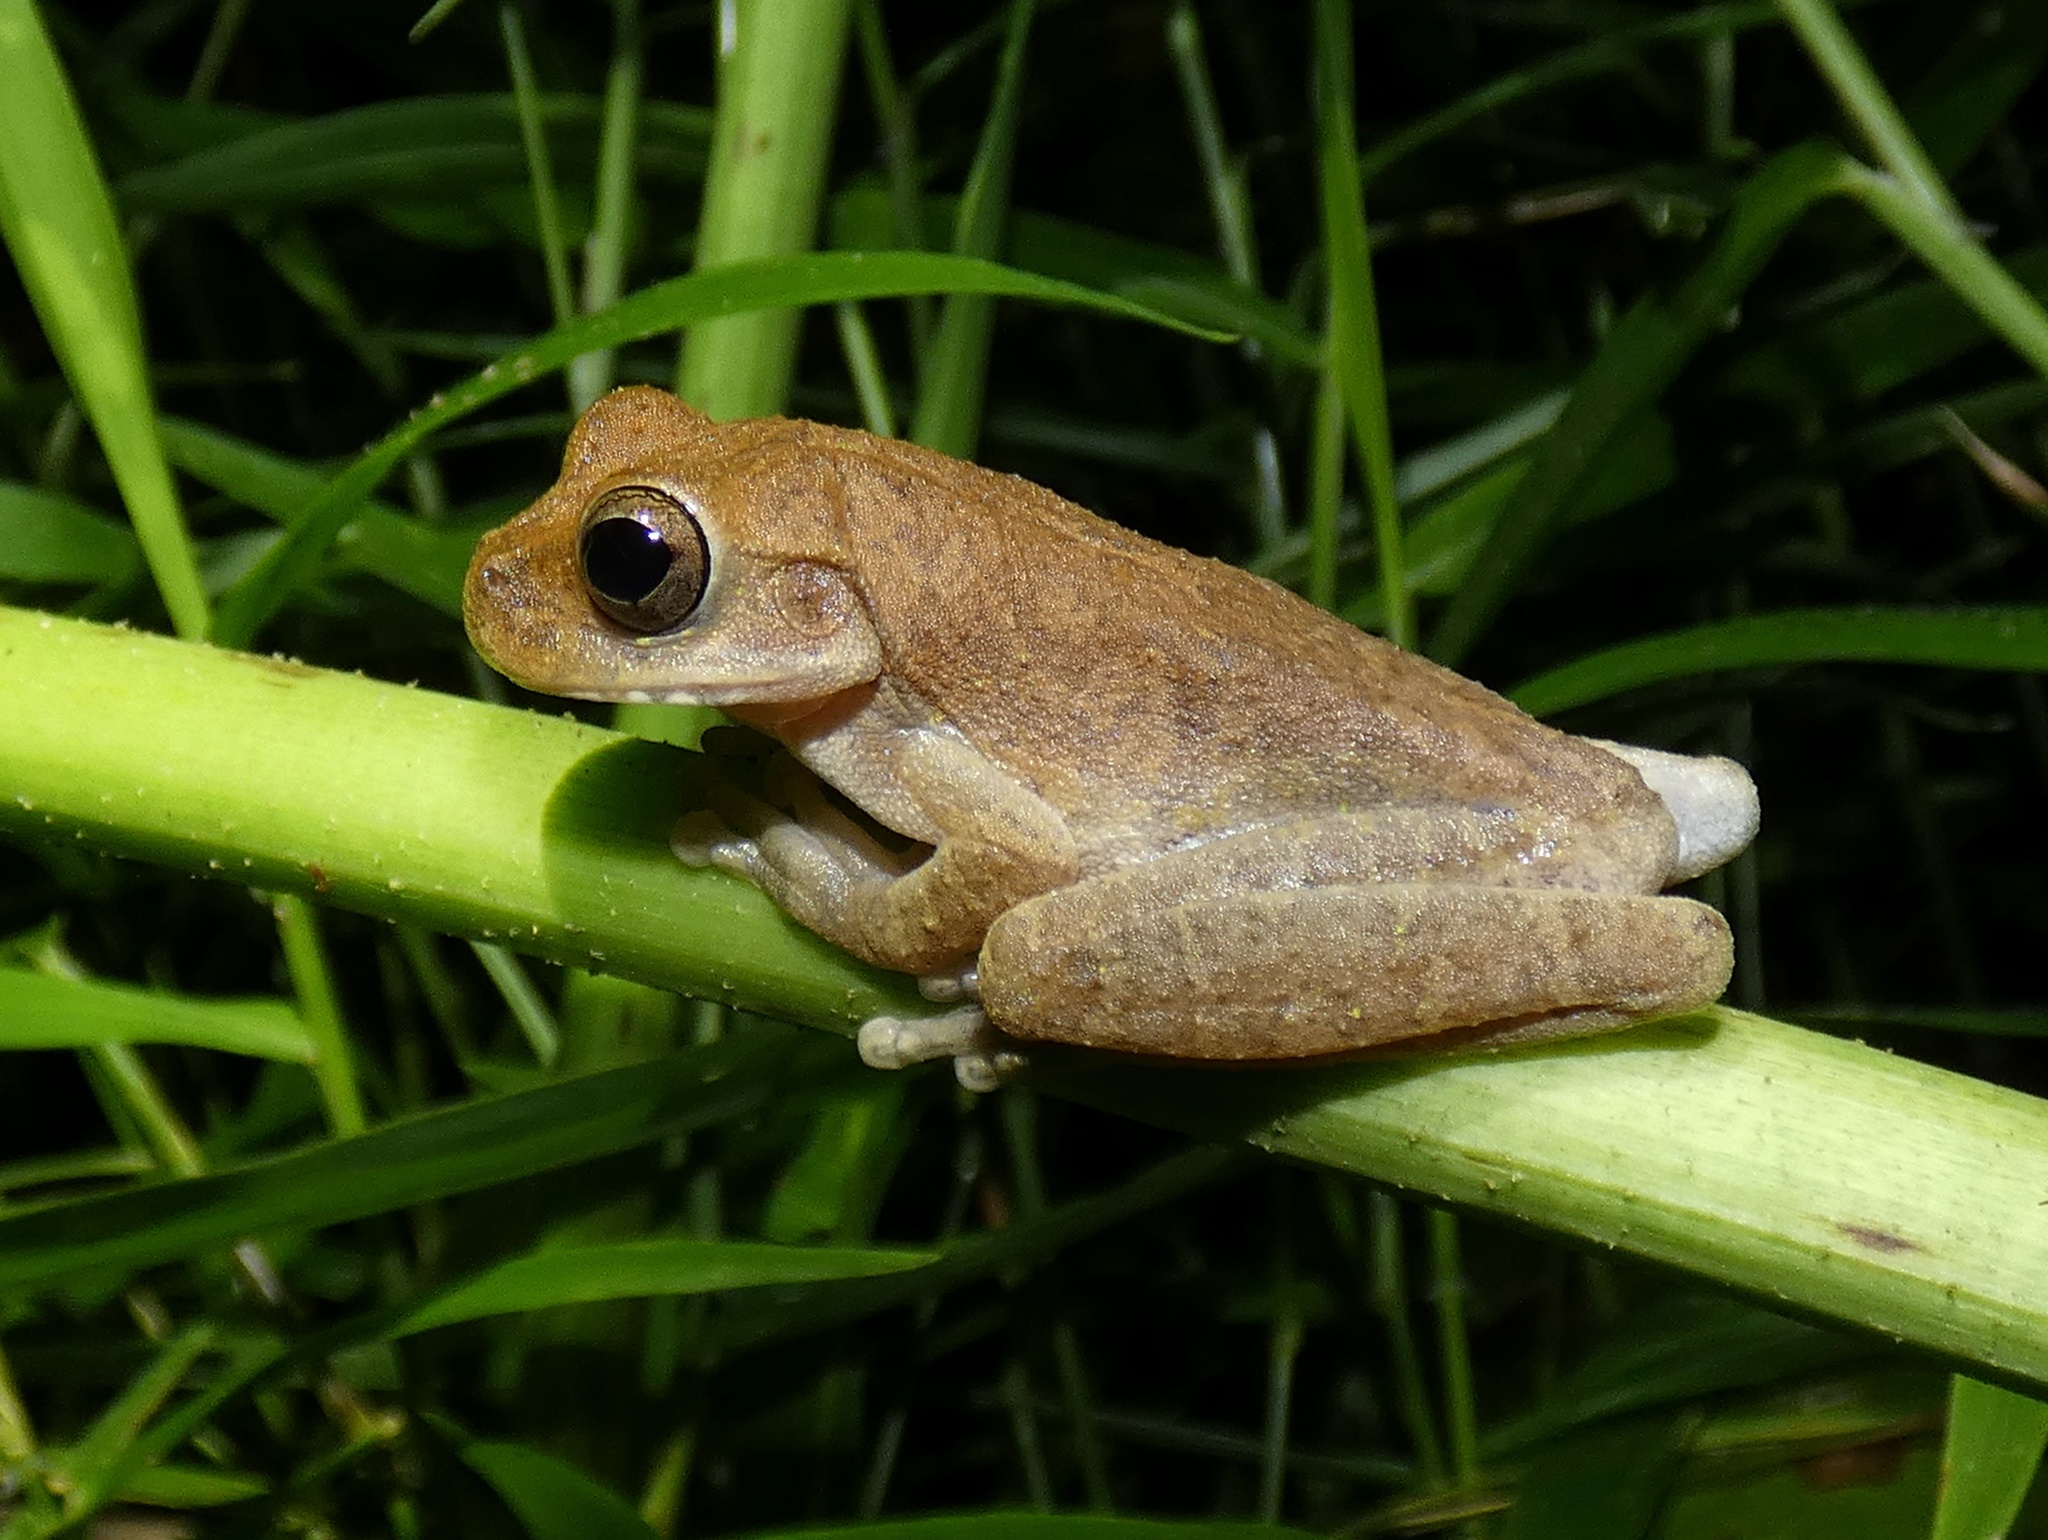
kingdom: Animalia
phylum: Chordata
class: Amphibia
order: Anura
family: Hylidae
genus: Smilisca
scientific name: Smilisca sila
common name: Panama cross-banded treefrog
